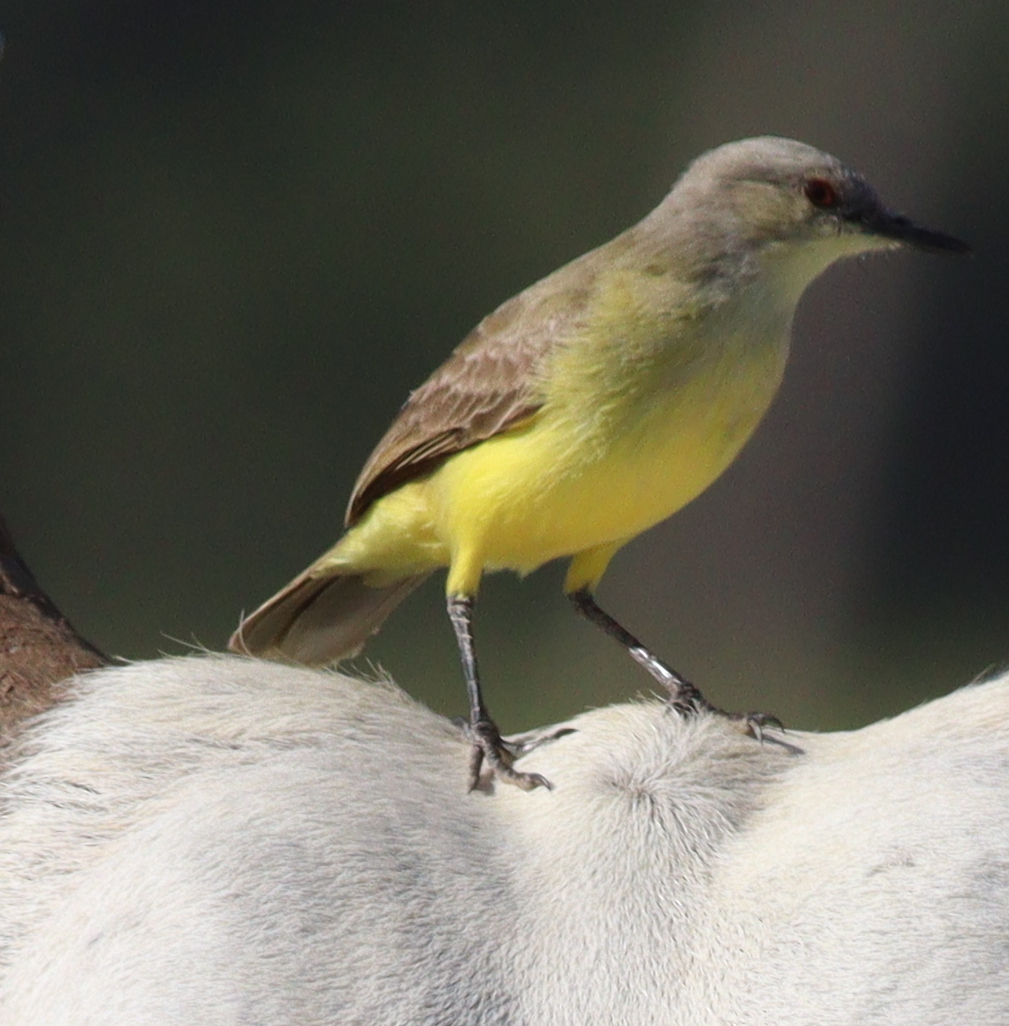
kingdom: Animalia
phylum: Chordata
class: Aves
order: Passeriformes
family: Tyrannidae
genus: Machetornis
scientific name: Machetornis rixosa
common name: Cattle tyrant
